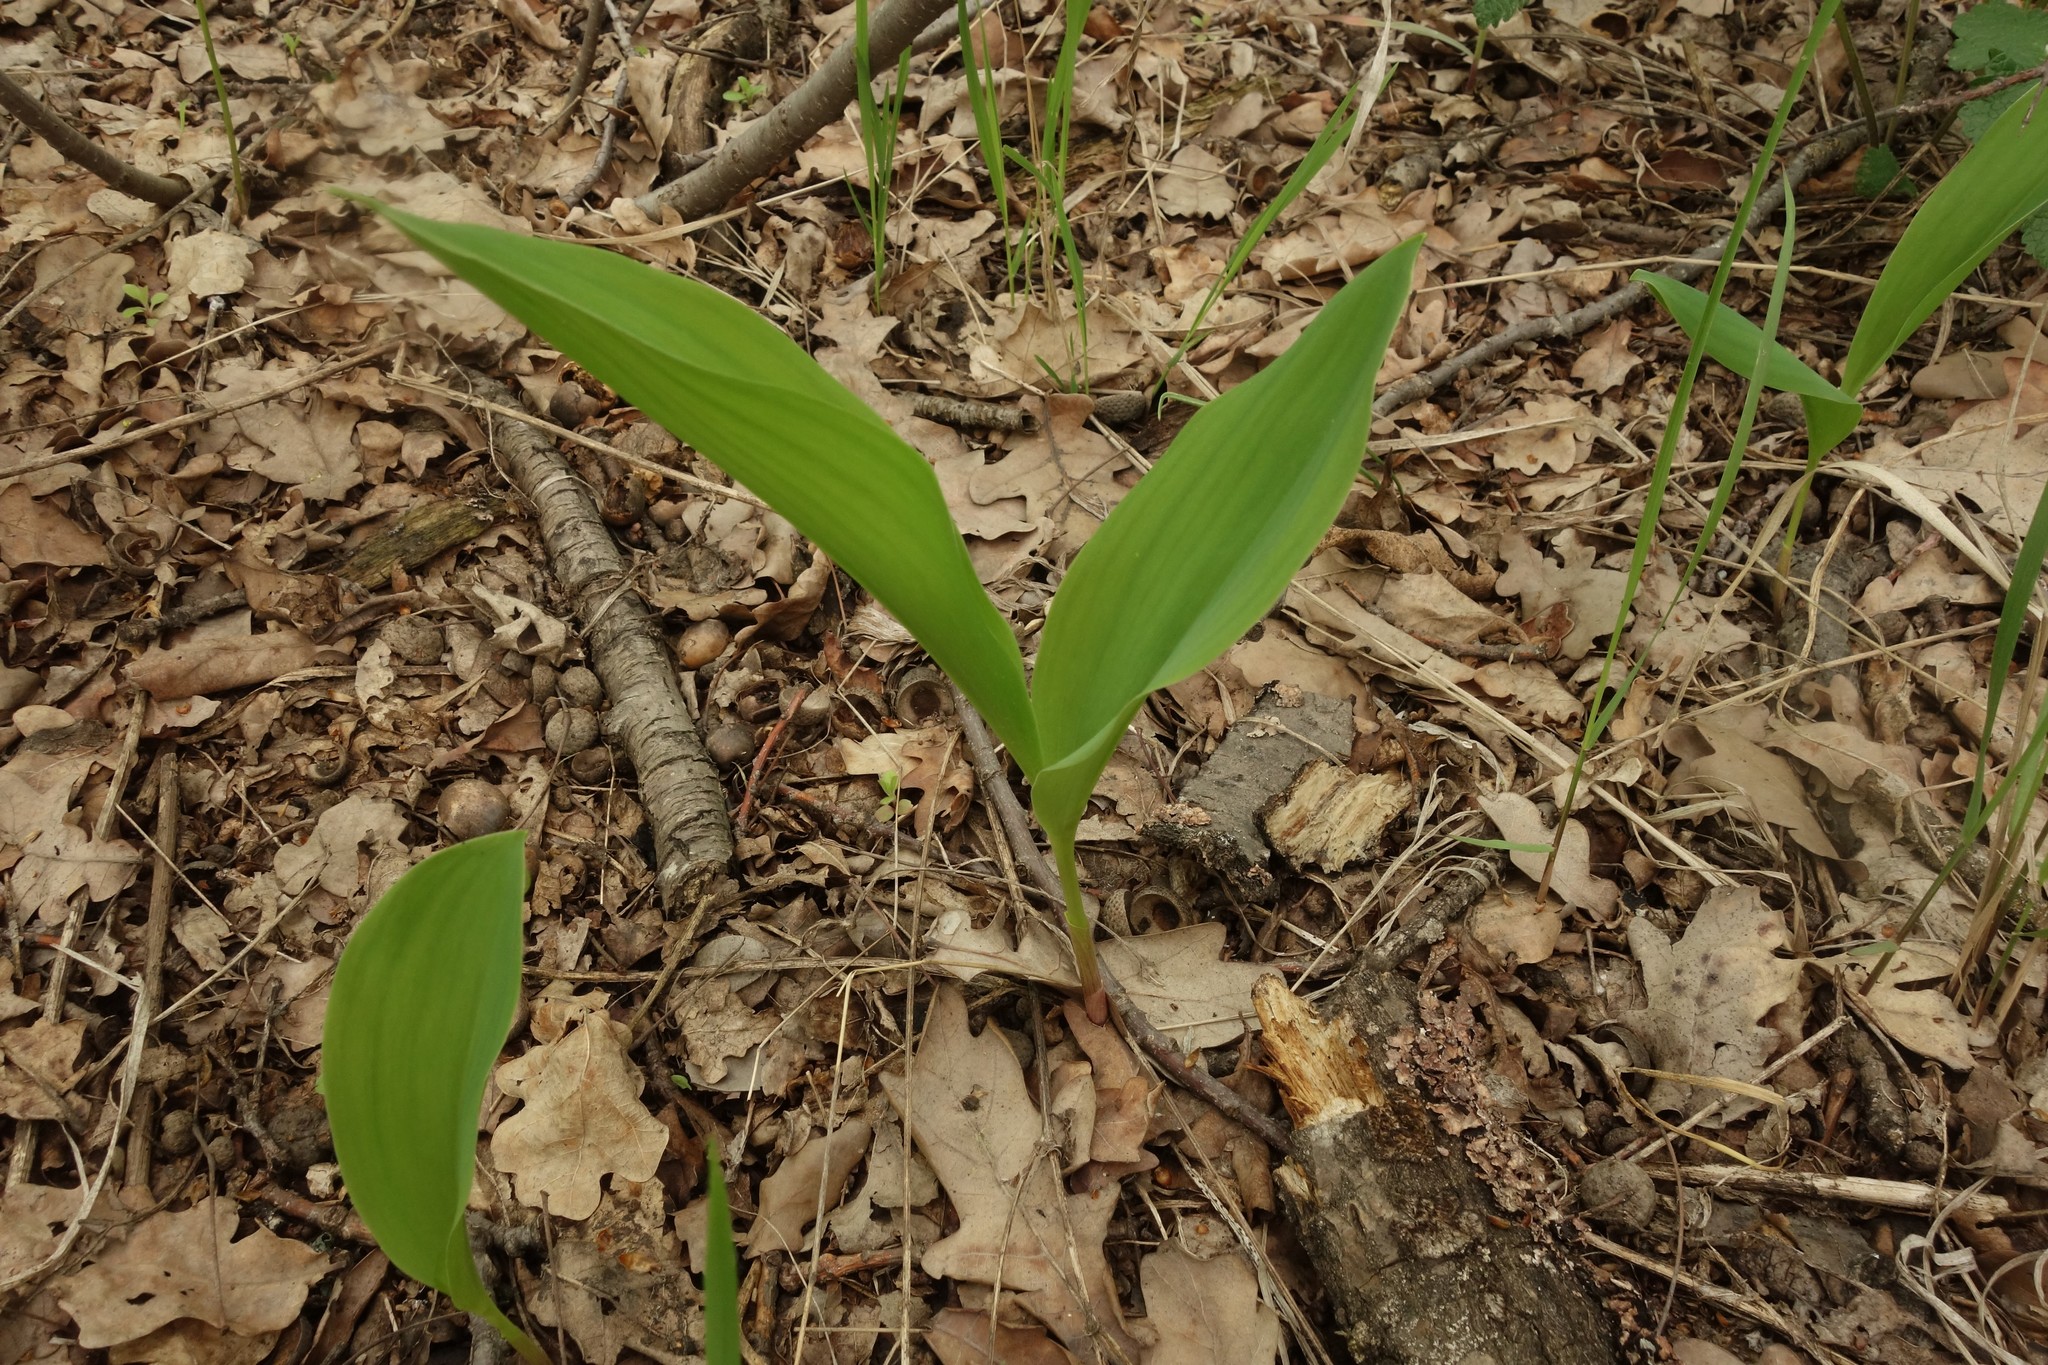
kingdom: Plantae
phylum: Tracheophyta
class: Liliopsida
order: Asparagales
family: Asparagaceae
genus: Convallaria
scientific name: Convallaria majalis
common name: Lily-of-the-valley
